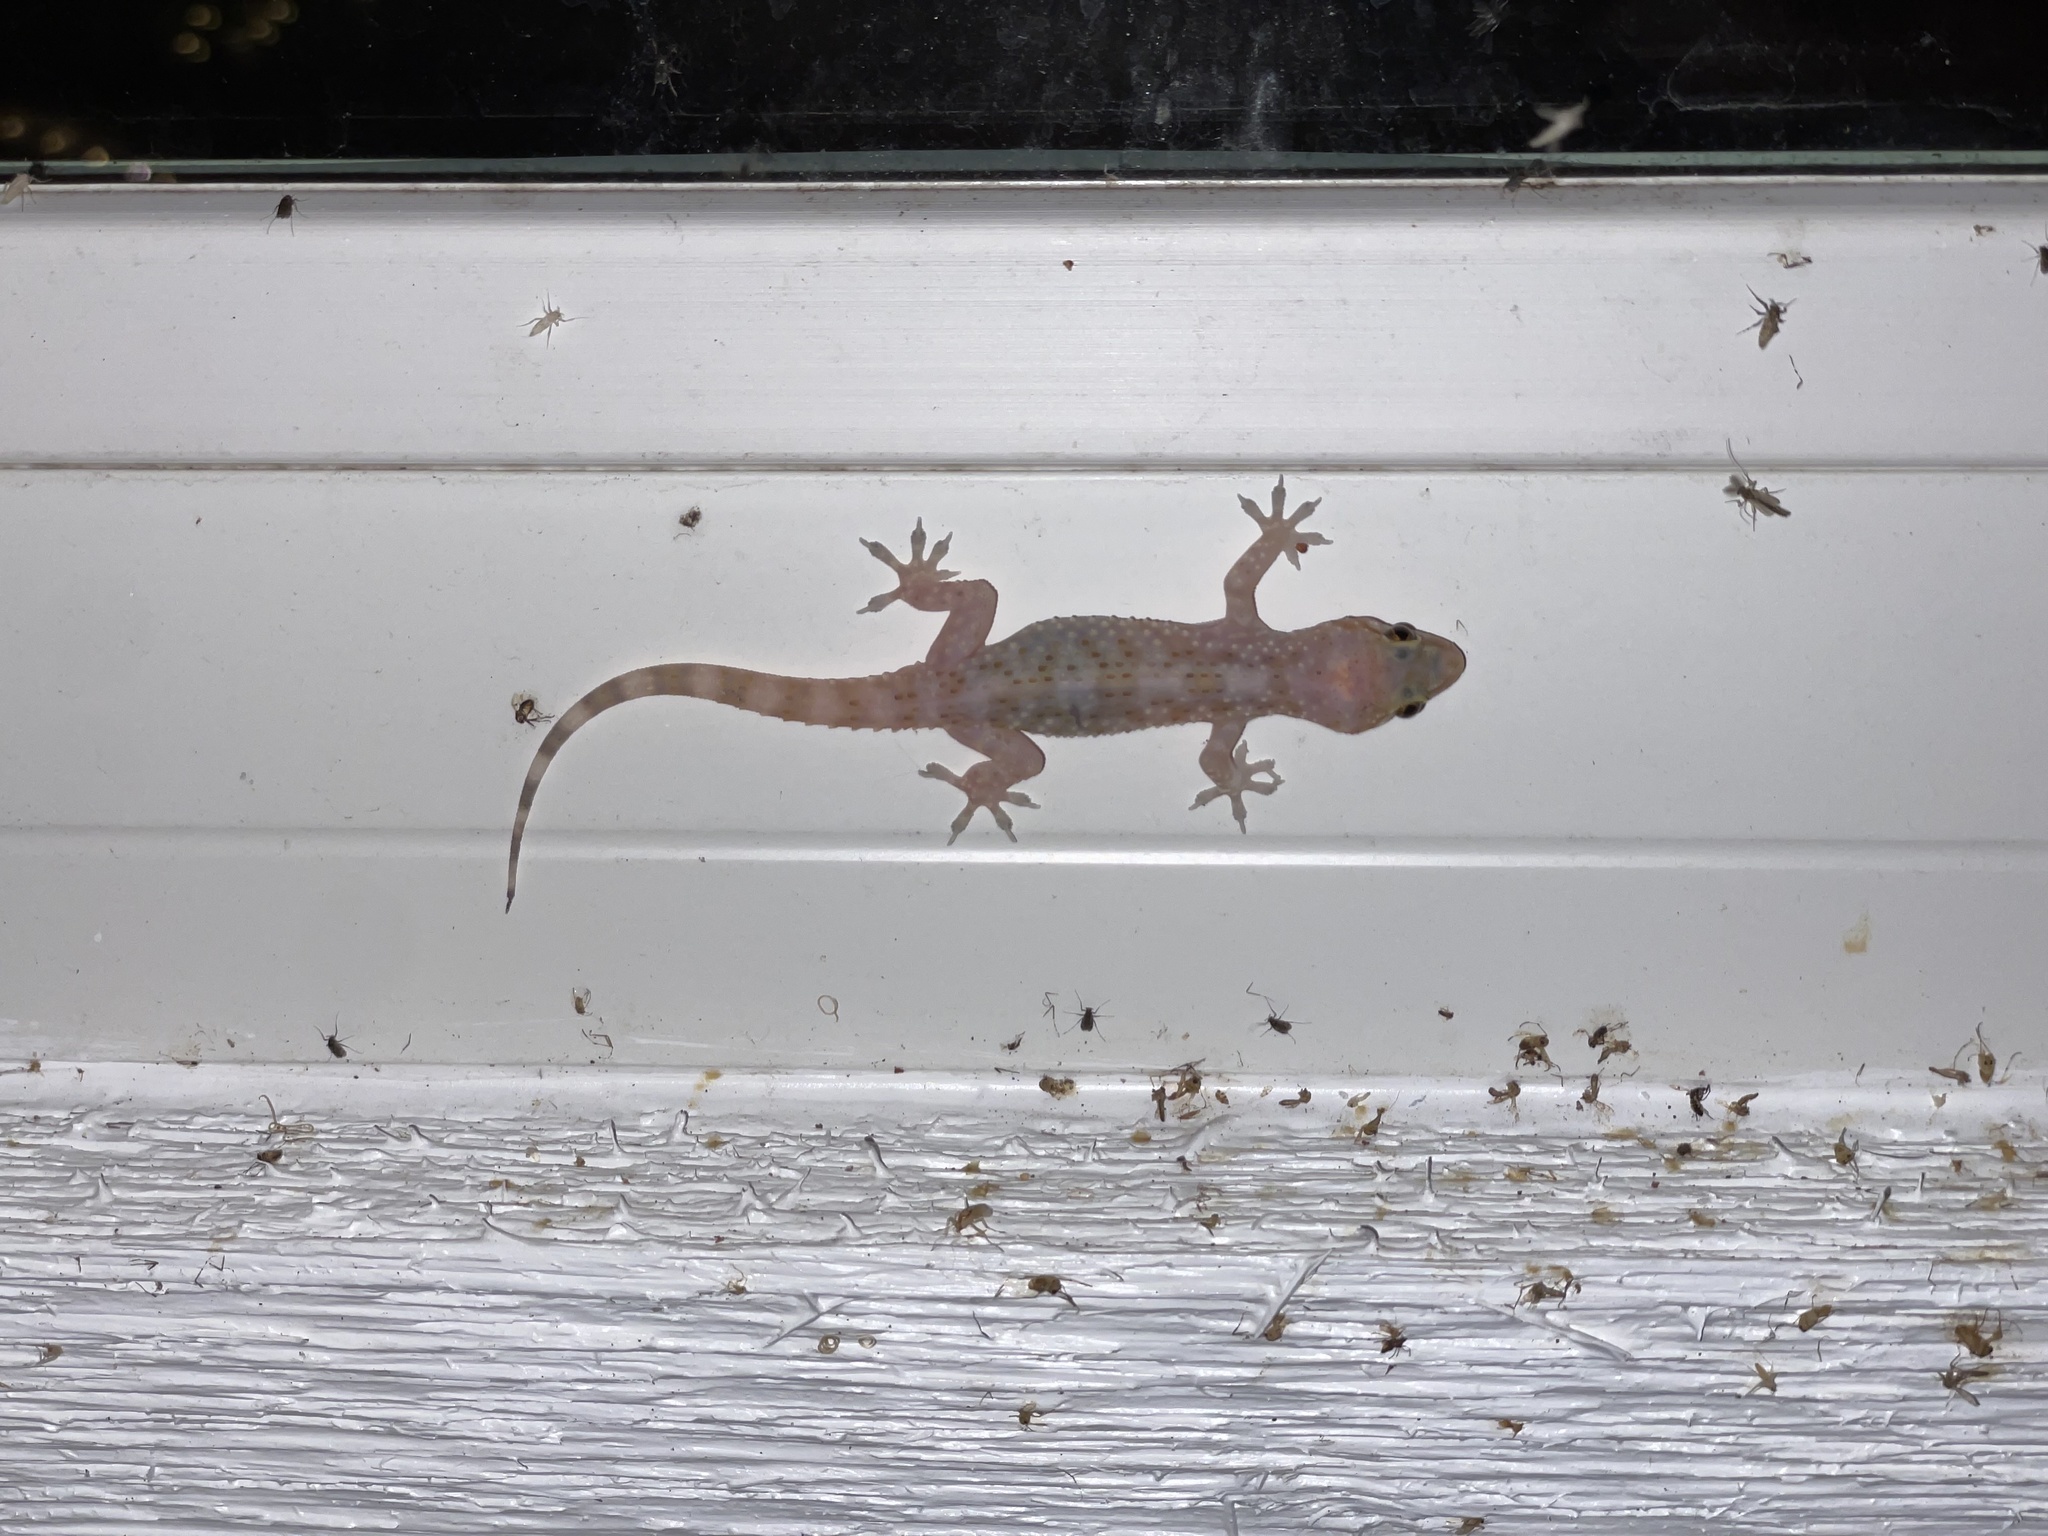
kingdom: Animalia
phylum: Chordata
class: Squamata
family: Gekkonidae
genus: Hemidactylus
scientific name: Hemidactylus turcicus
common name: Turkish gecko
